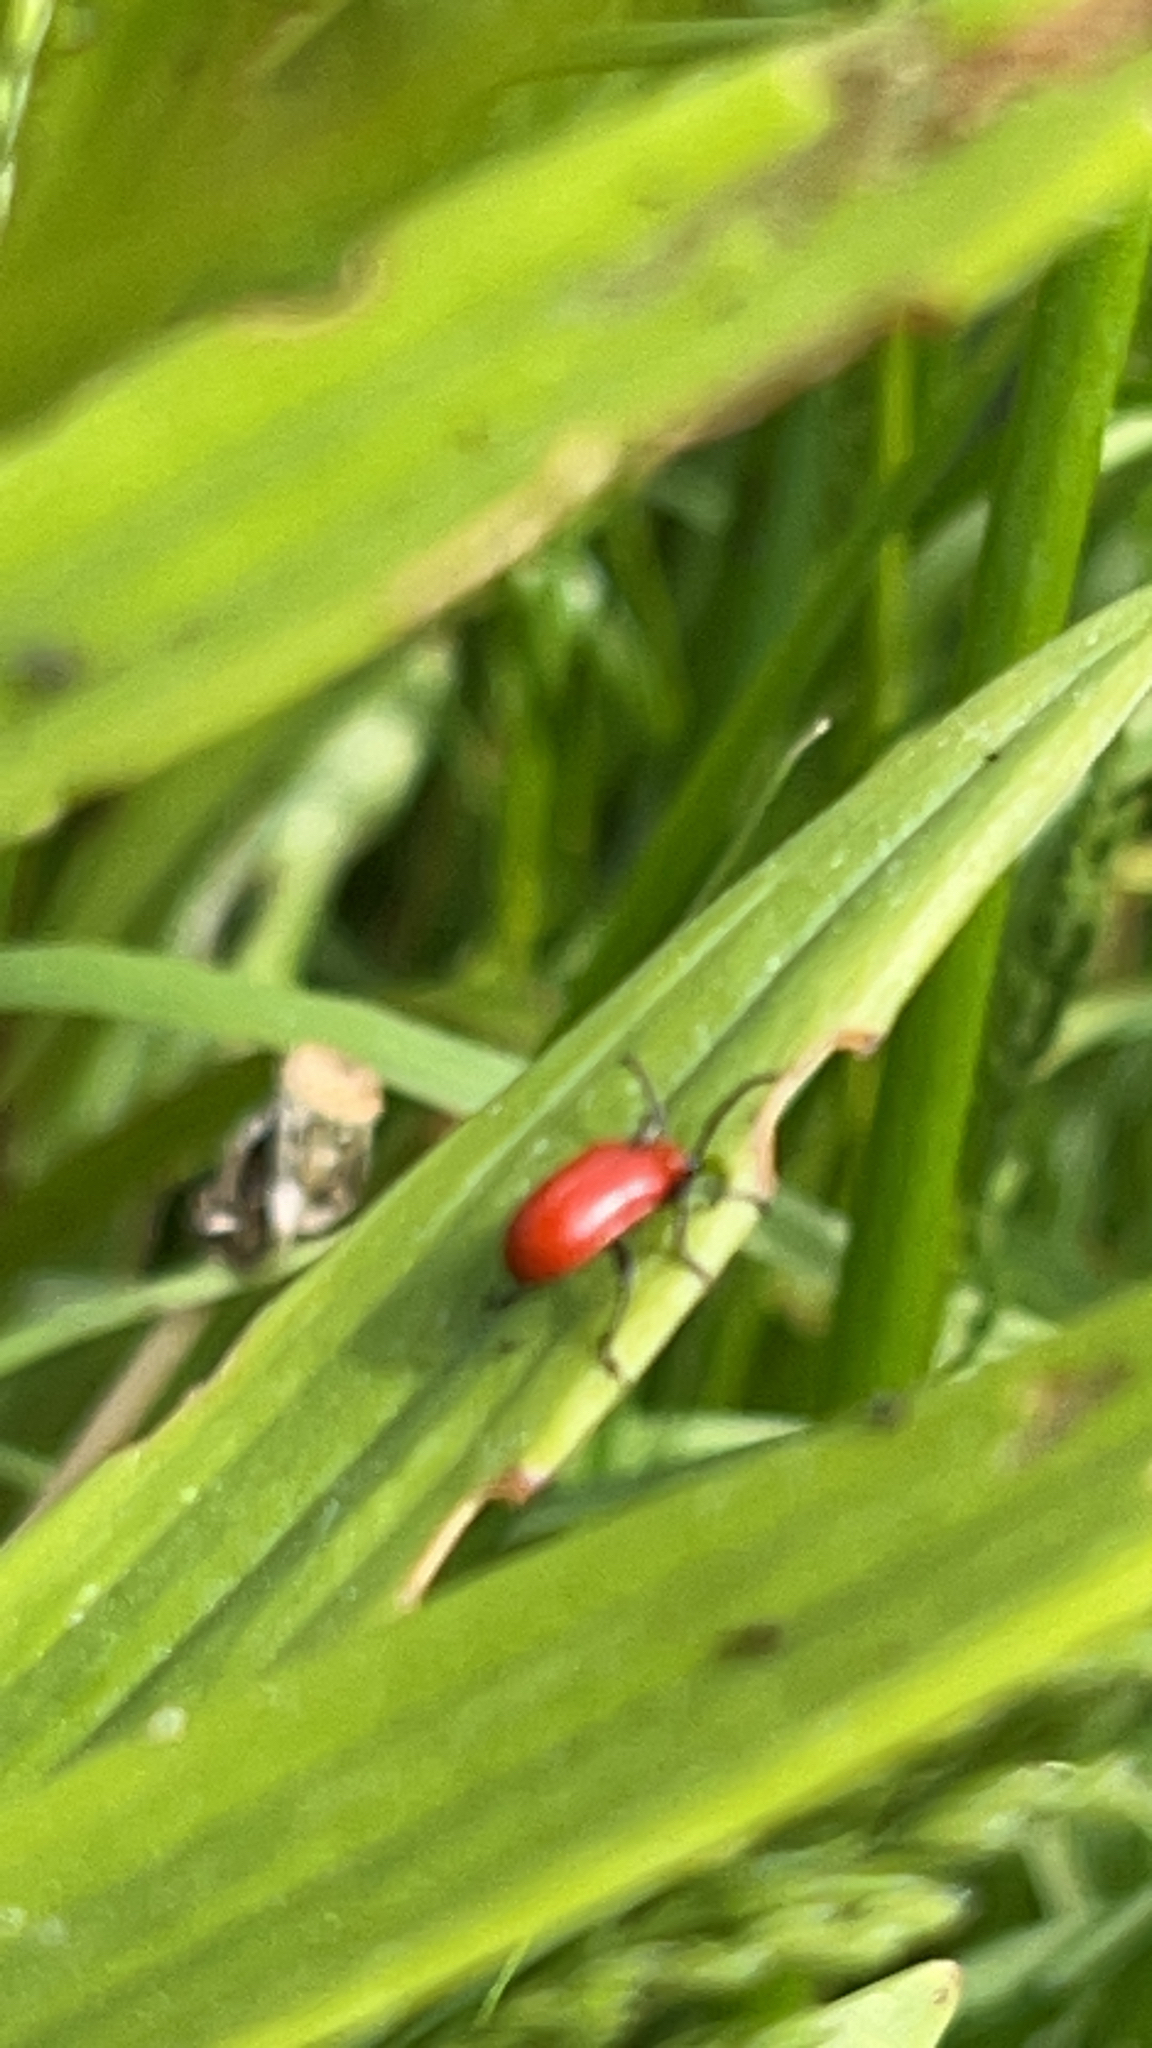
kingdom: Animalia
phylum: Arthropoda
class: Insecta
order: Coleoptera
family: Chrysomelidae
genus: Lilioceris
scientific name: Lilioceris lilii
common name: Lily beetle
